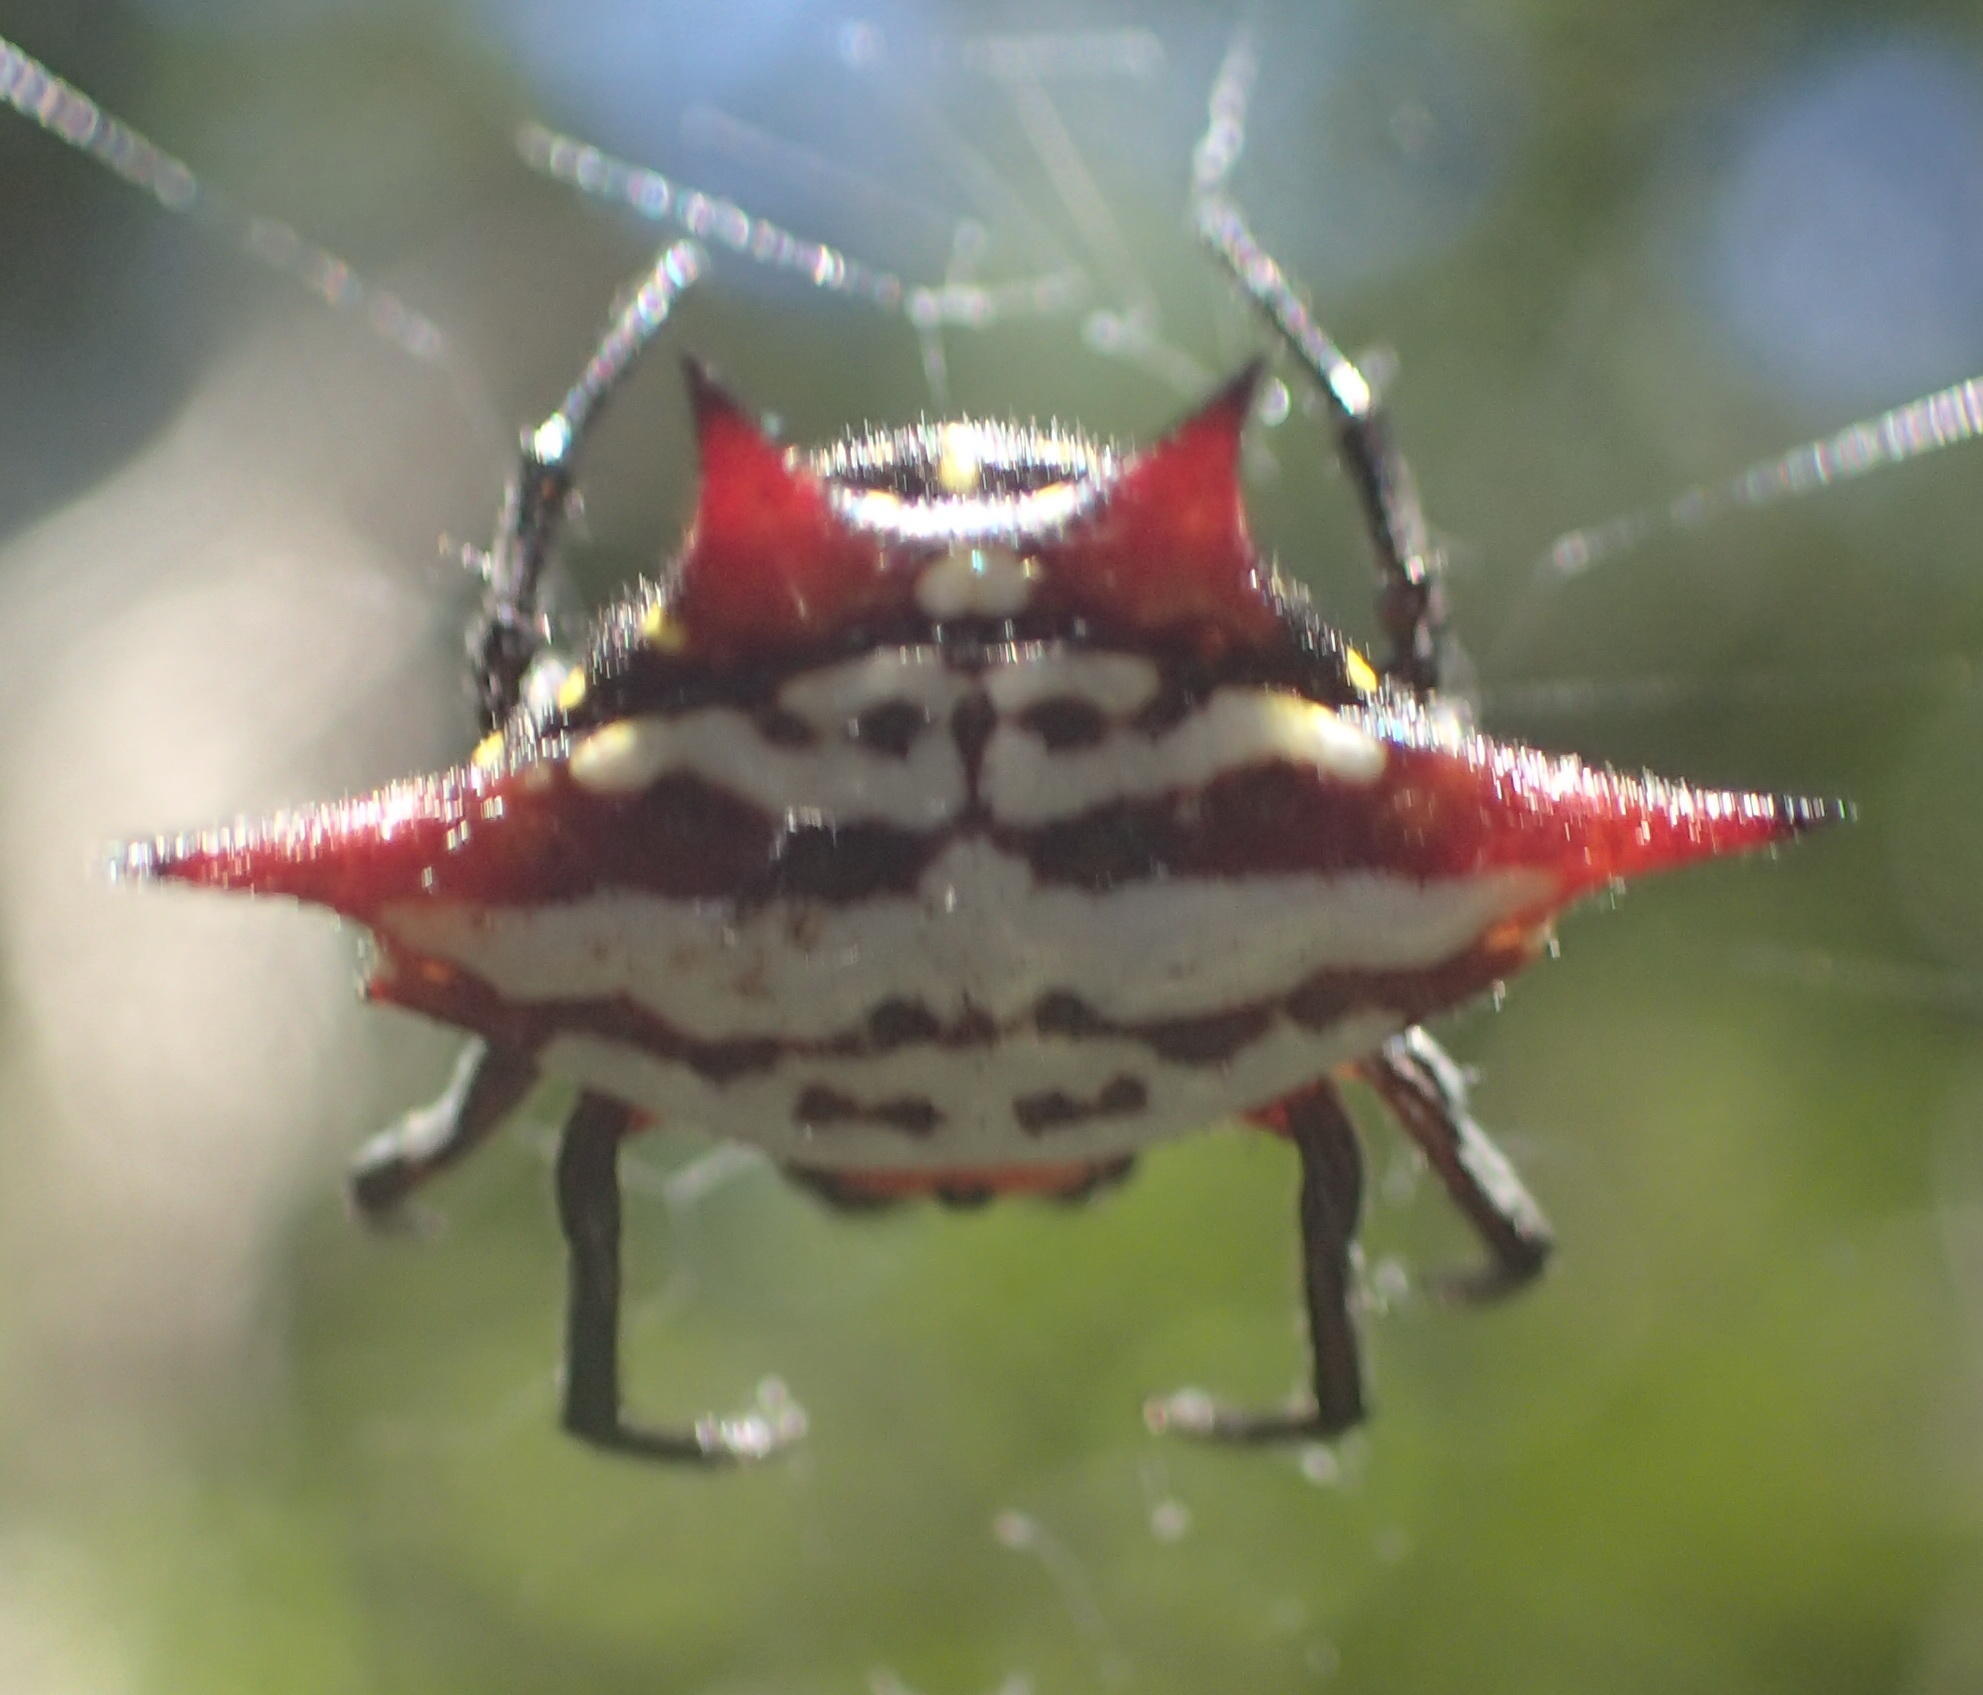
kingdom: Animalia
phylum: Arthropoda
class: Arachnida
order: Araneae
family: Araneidae
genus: Gasteracantha
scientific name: Gasteracantha sanguinolenta
